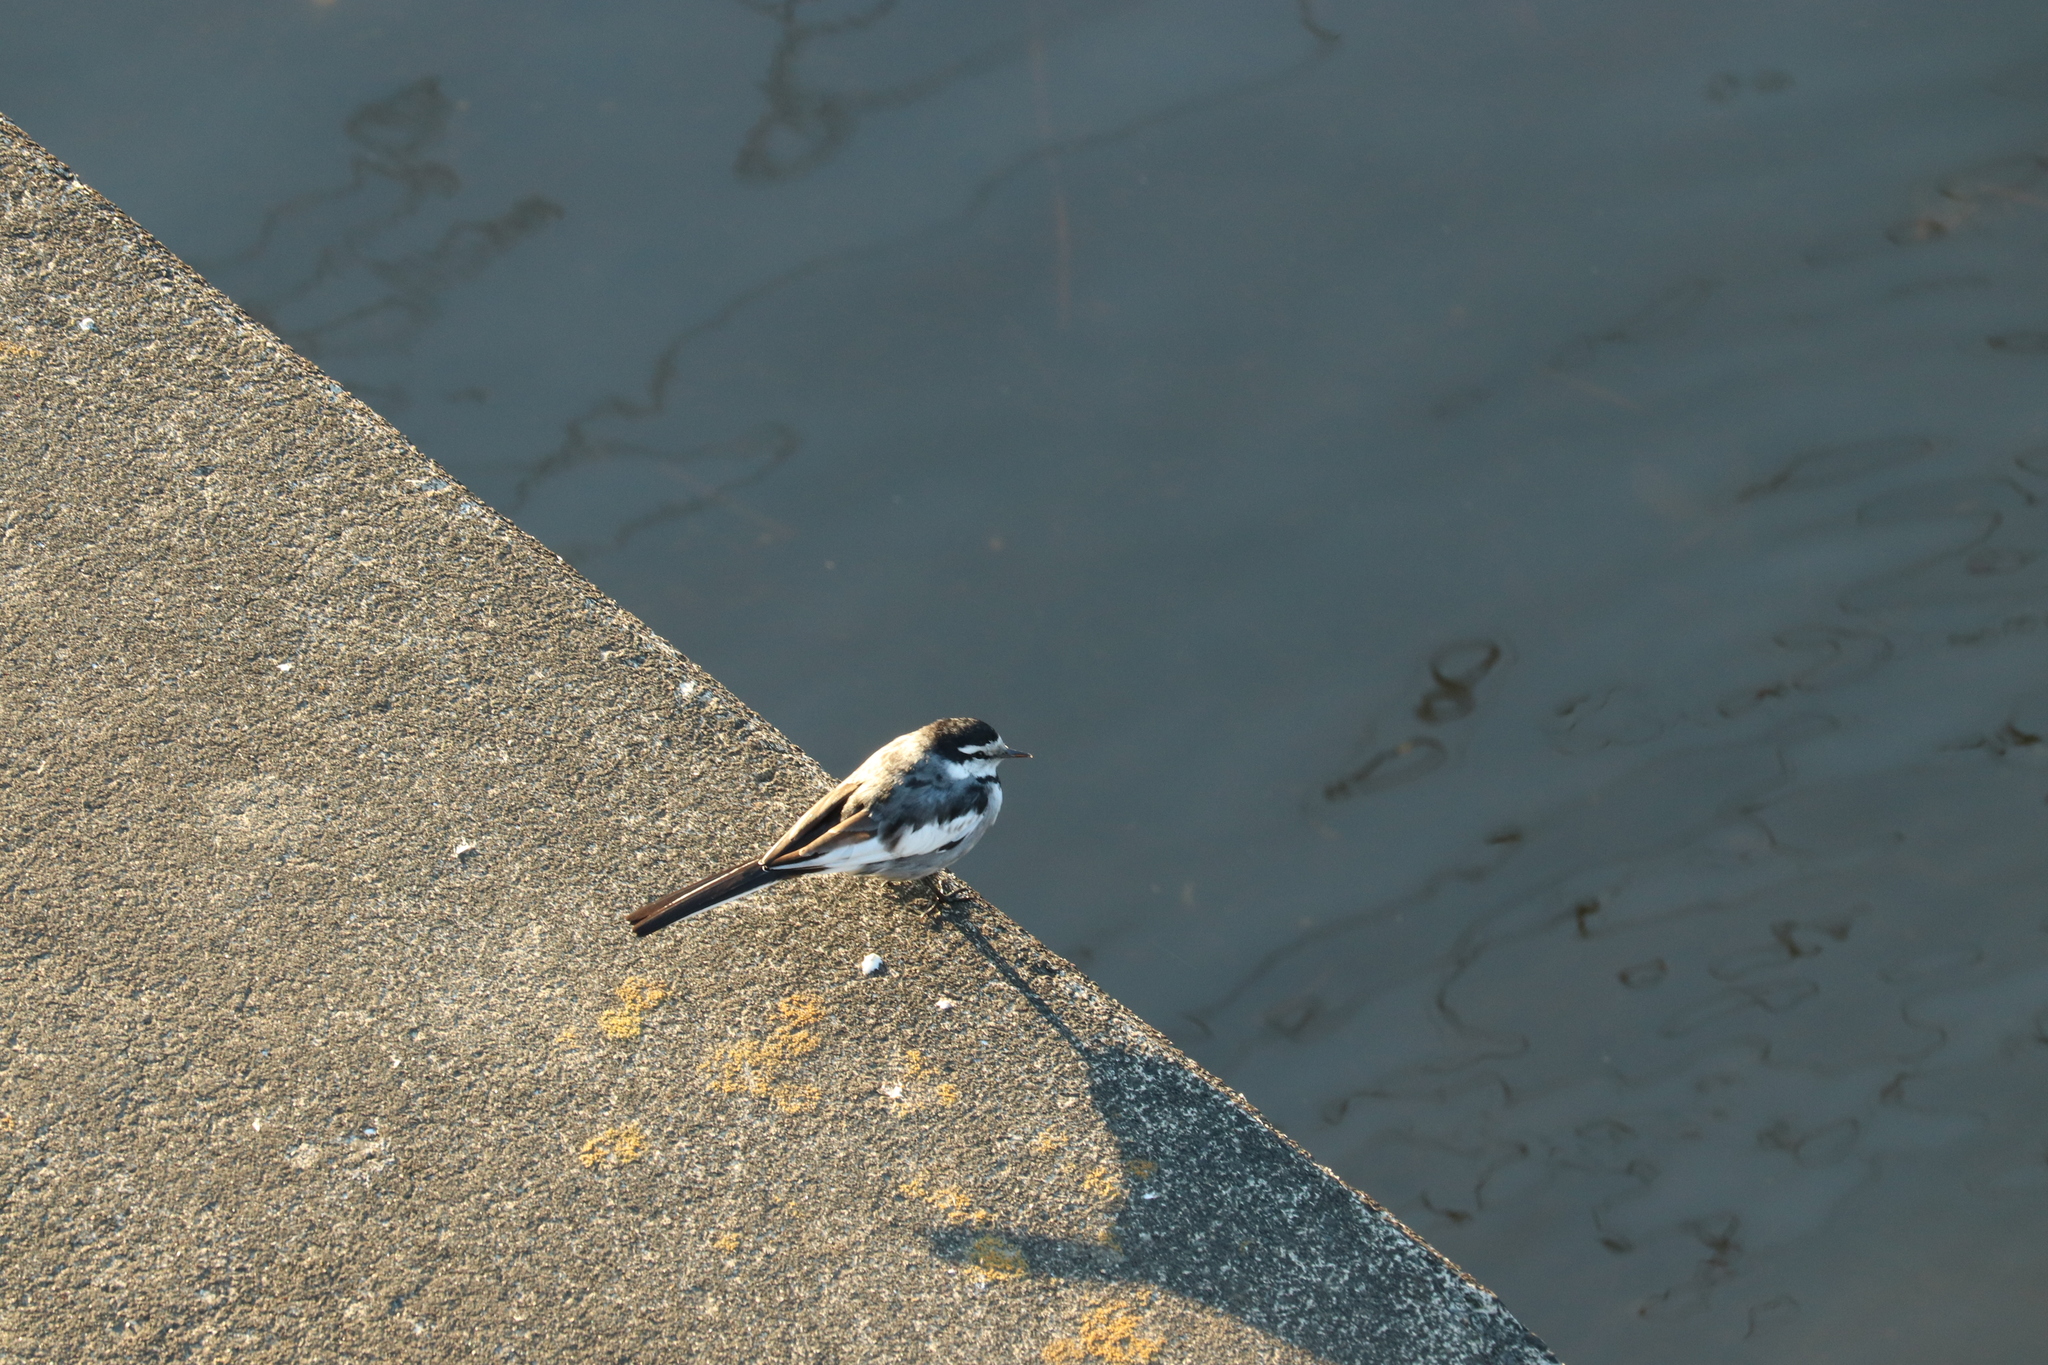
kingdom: Animalia
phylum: Chordata
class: Aves
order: Passeriformes
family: Motacillidae
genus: Motacilla
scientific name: Motacilla alba
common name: White wagtail
